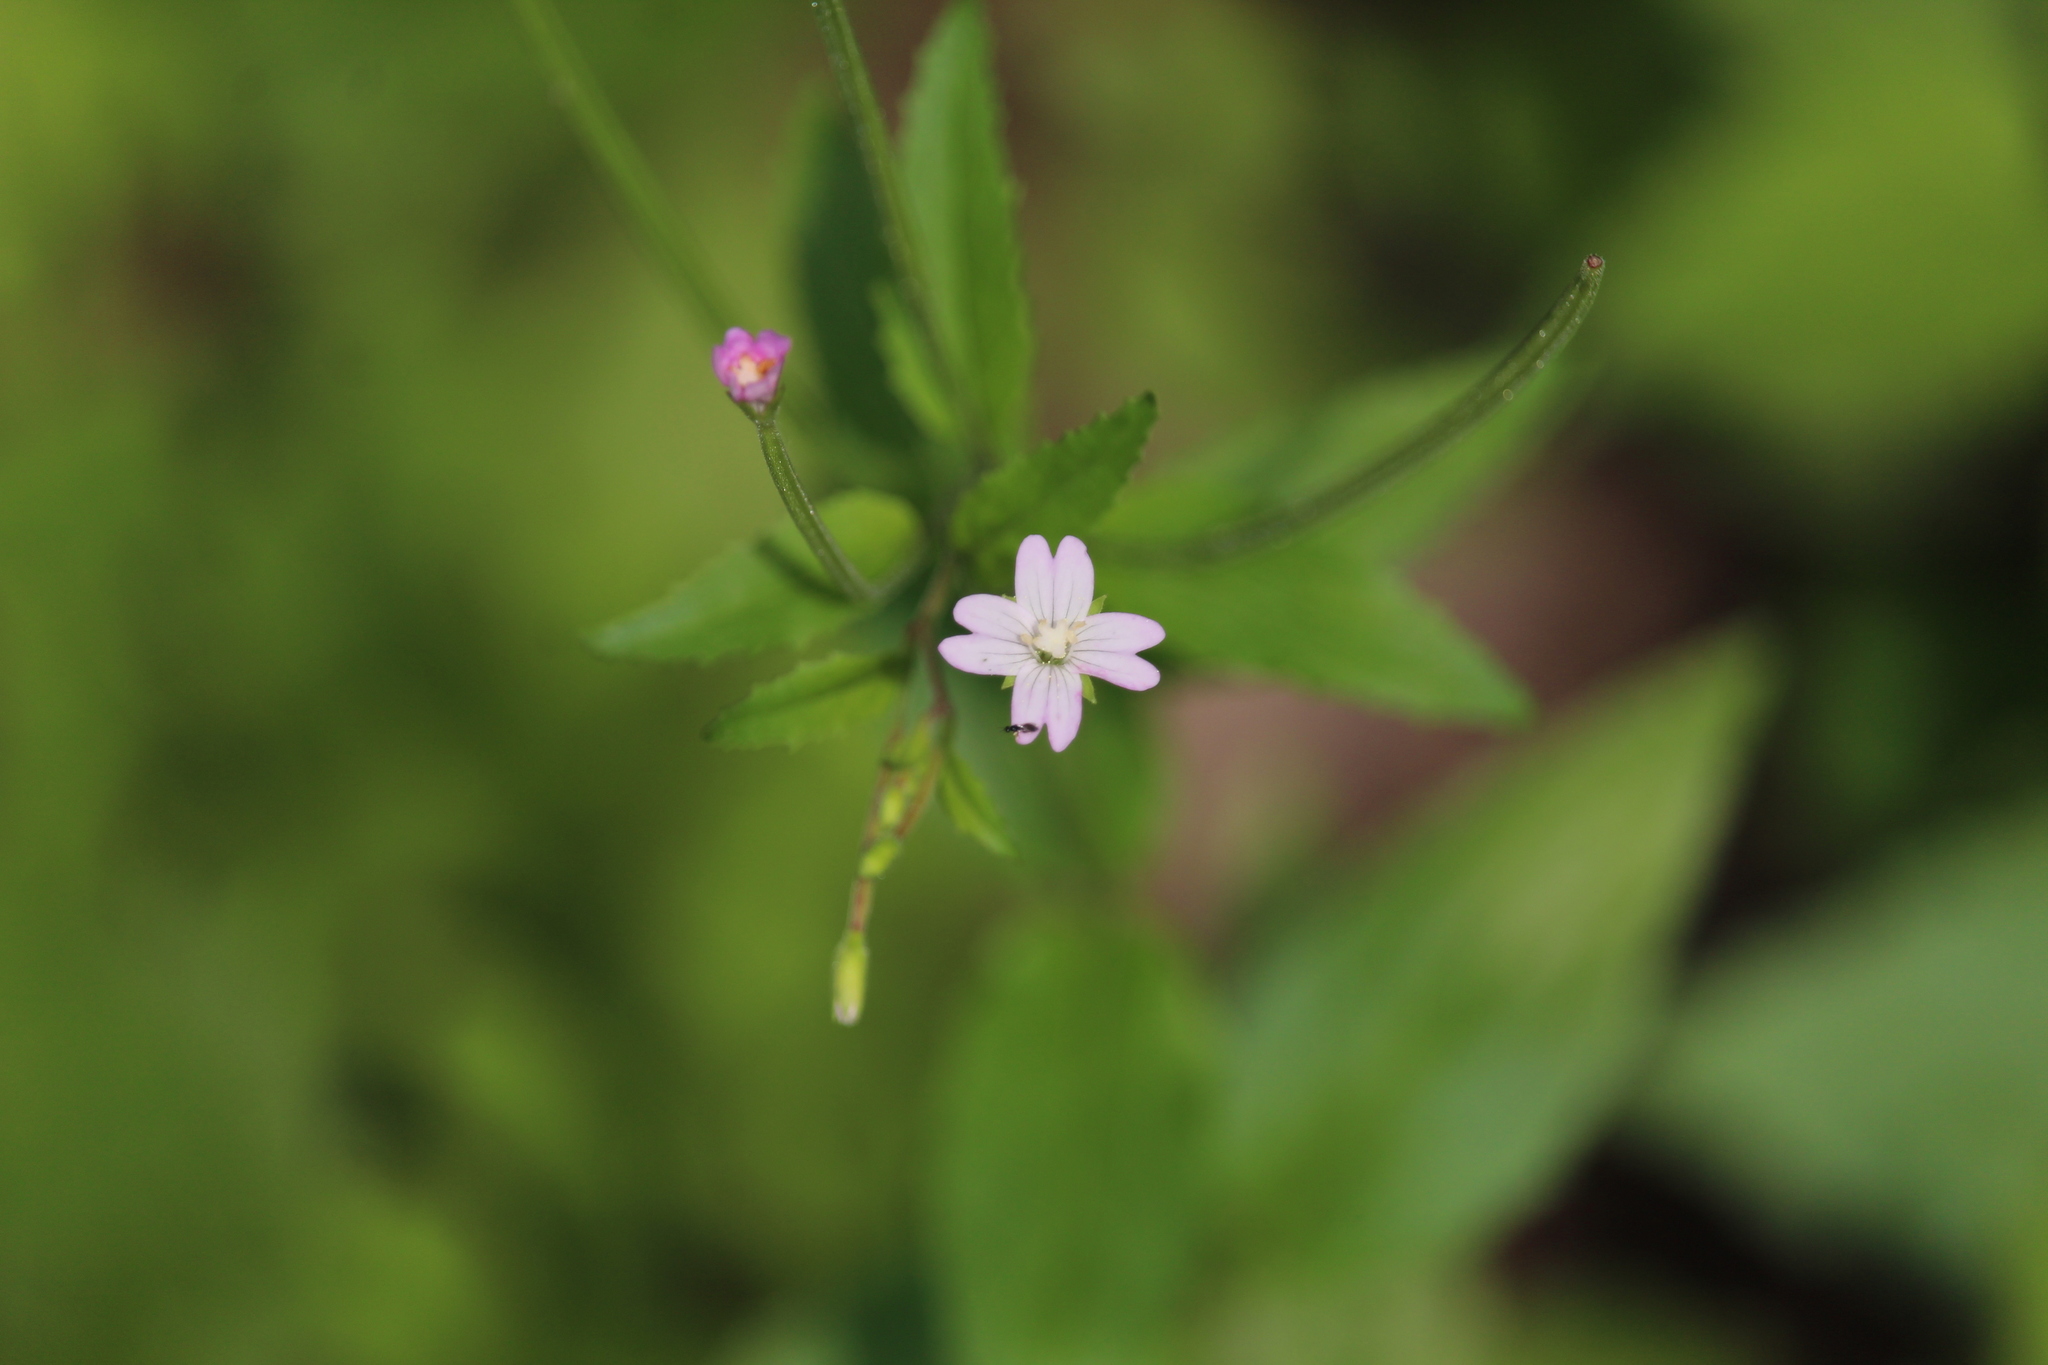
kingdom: Plantae
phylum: Tracheophyta
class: Magnoliopsida
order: Myrtales
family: Onagraceae
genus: Epilobium
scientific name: Epilobium montanum
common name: Broad-leaved willowherb
